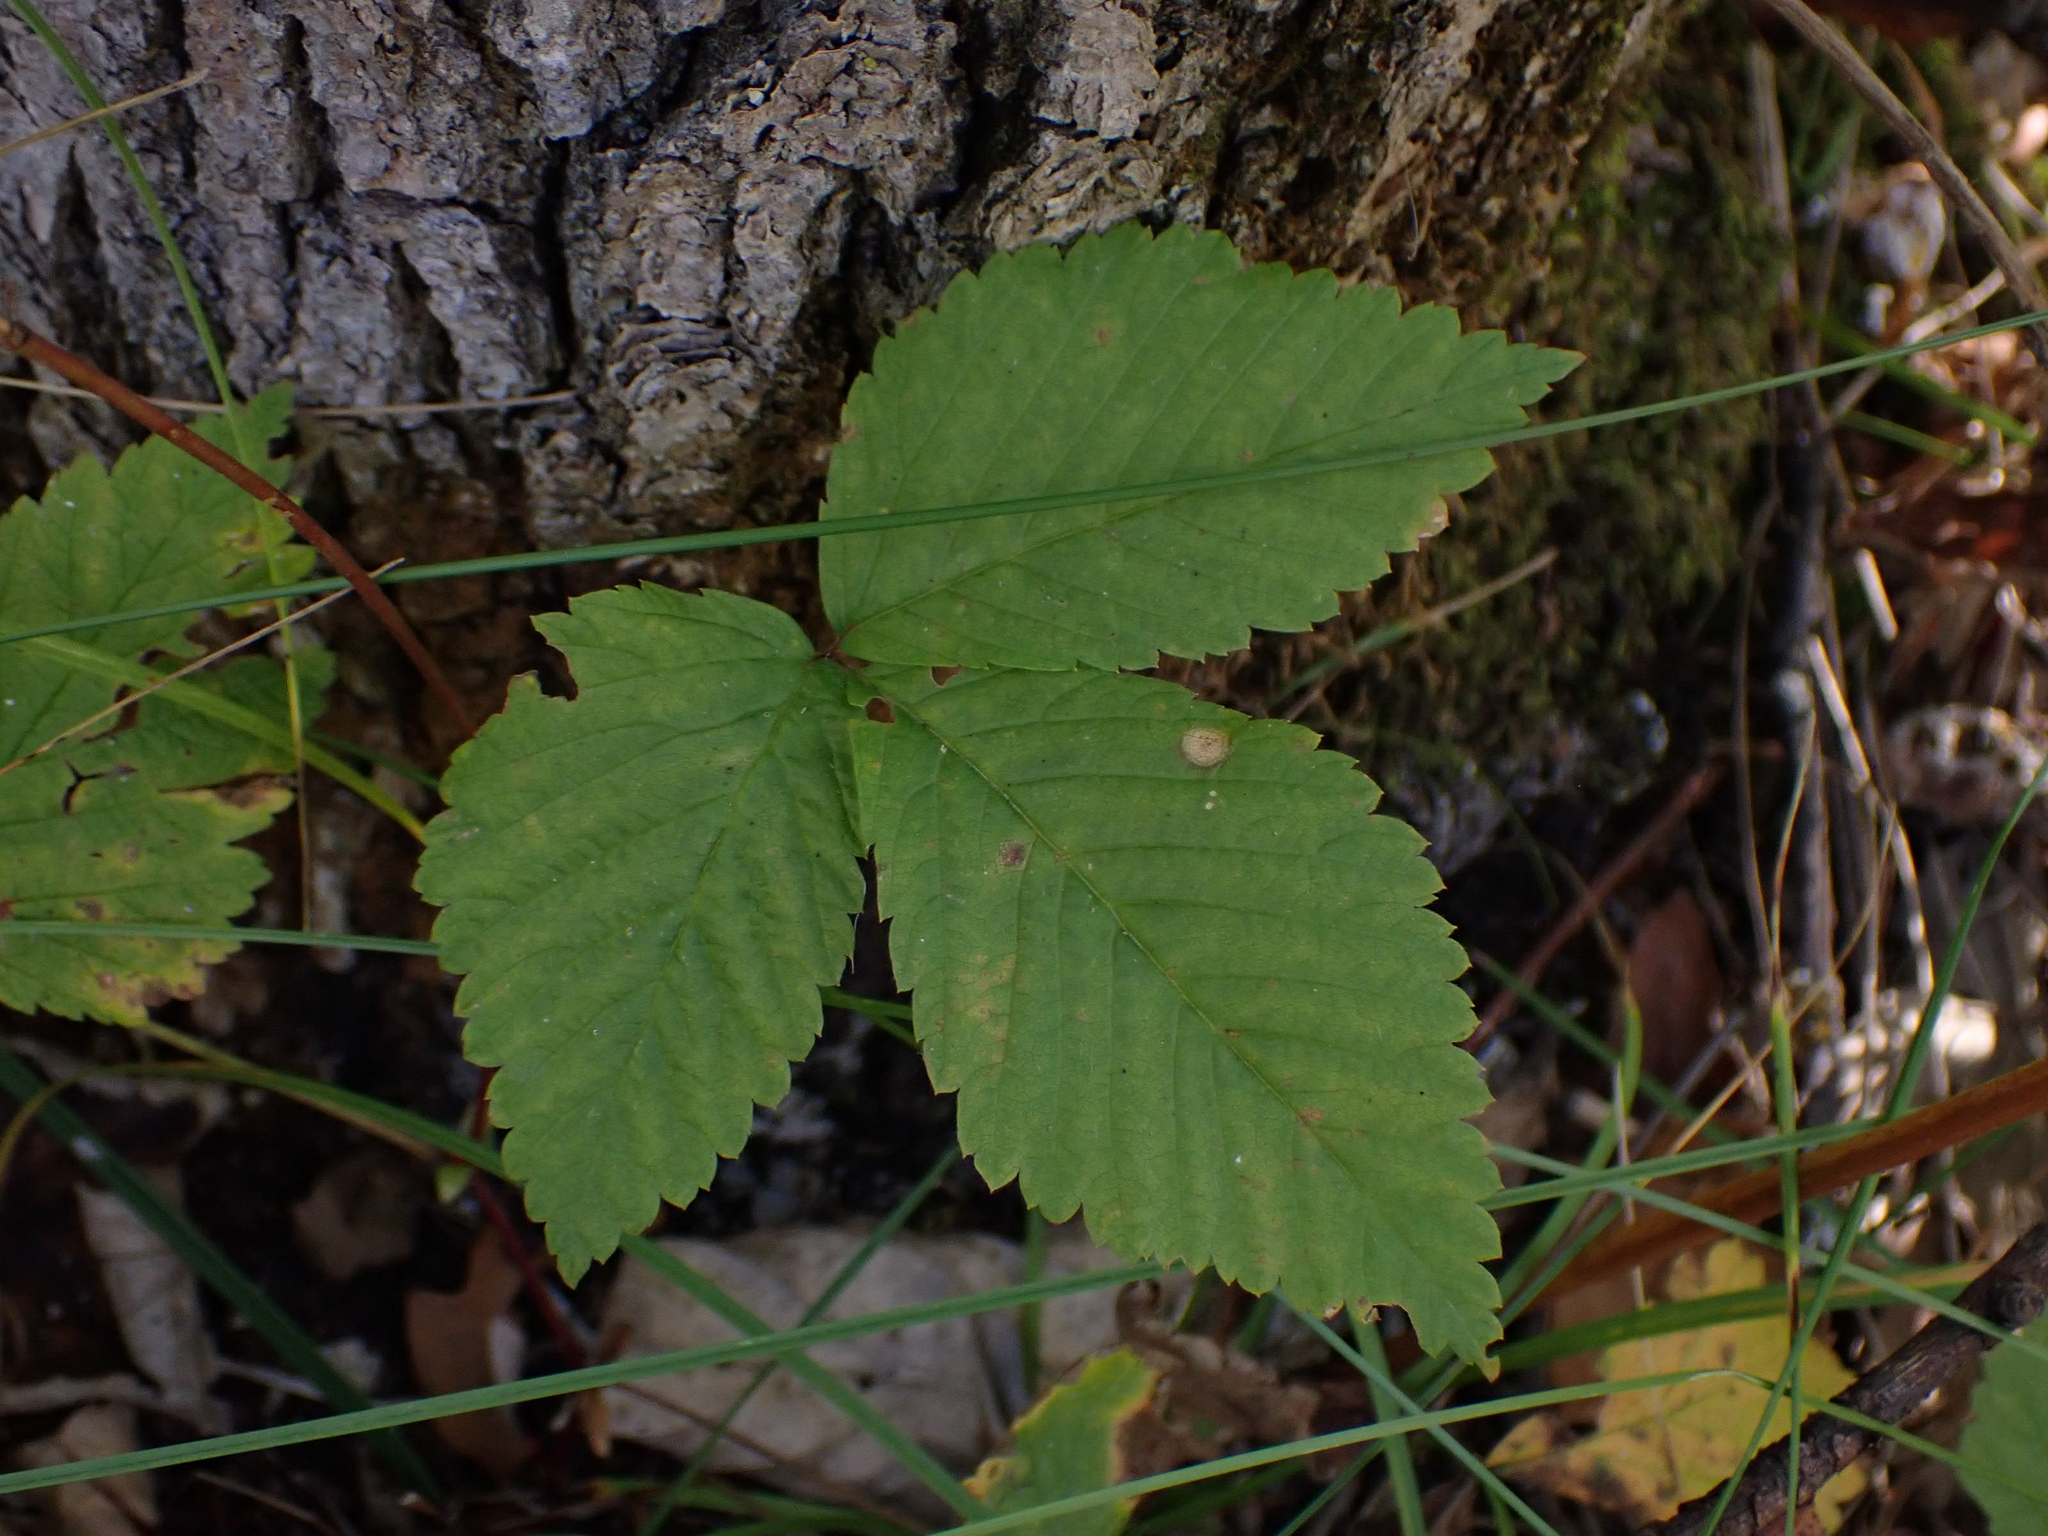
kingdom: Plantae
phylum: Tracheophyta
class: Magnoliopsida
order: Rosales
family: Rosaceae
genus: Rubus
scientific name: Rubus pubescens
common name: Dwarf raspberry
